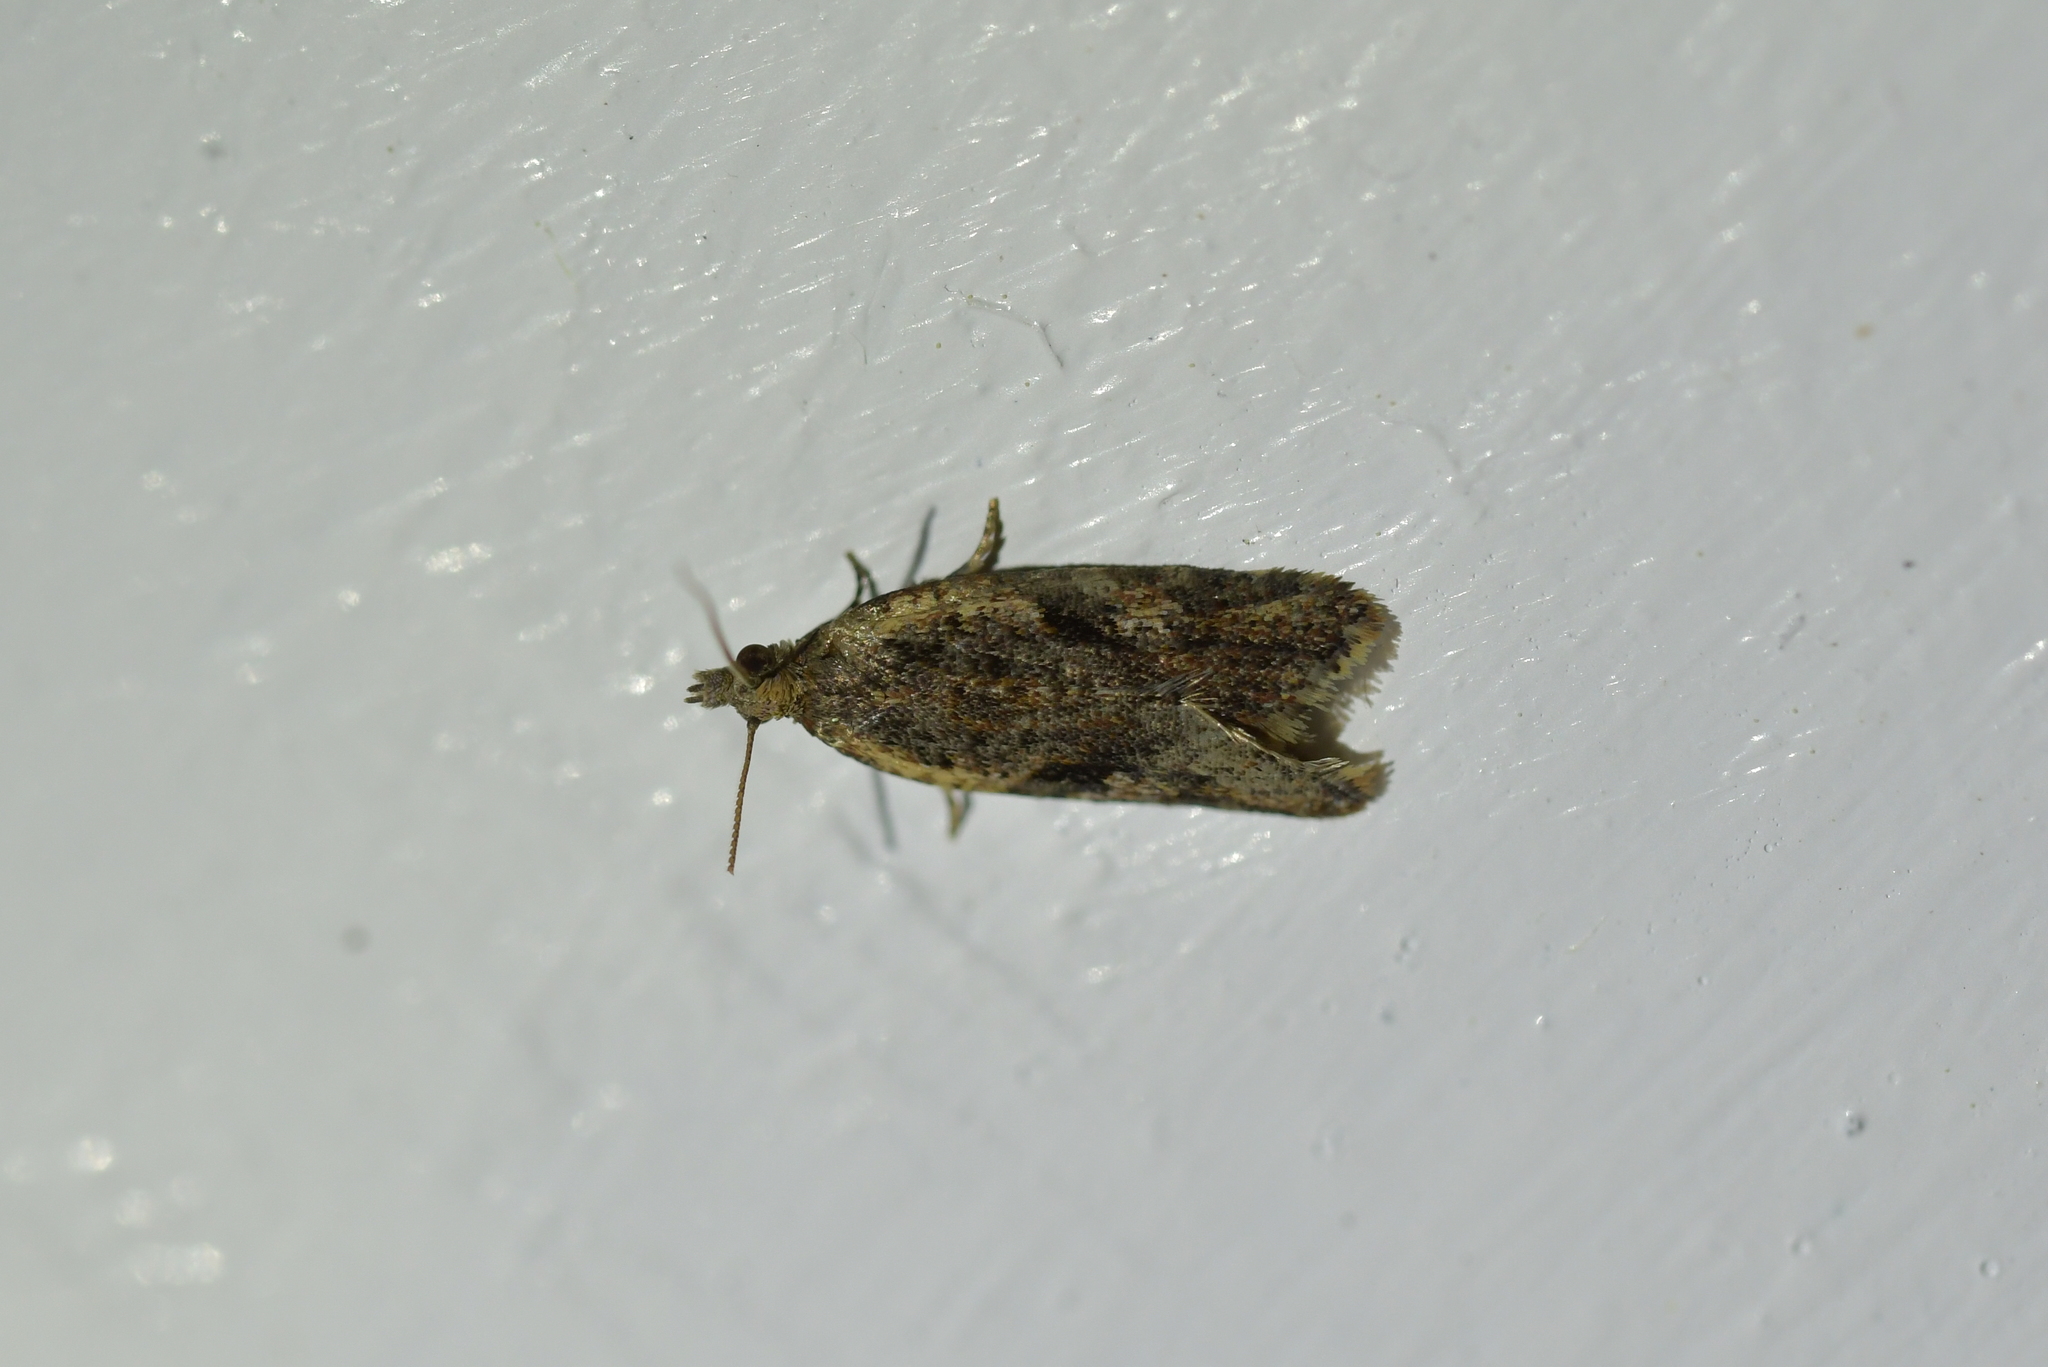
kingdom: Animalia
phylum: Arthropoda
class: Insecta
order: Lepidoptera
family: Tortricidae
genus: Capua
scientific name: Capua semiferana
